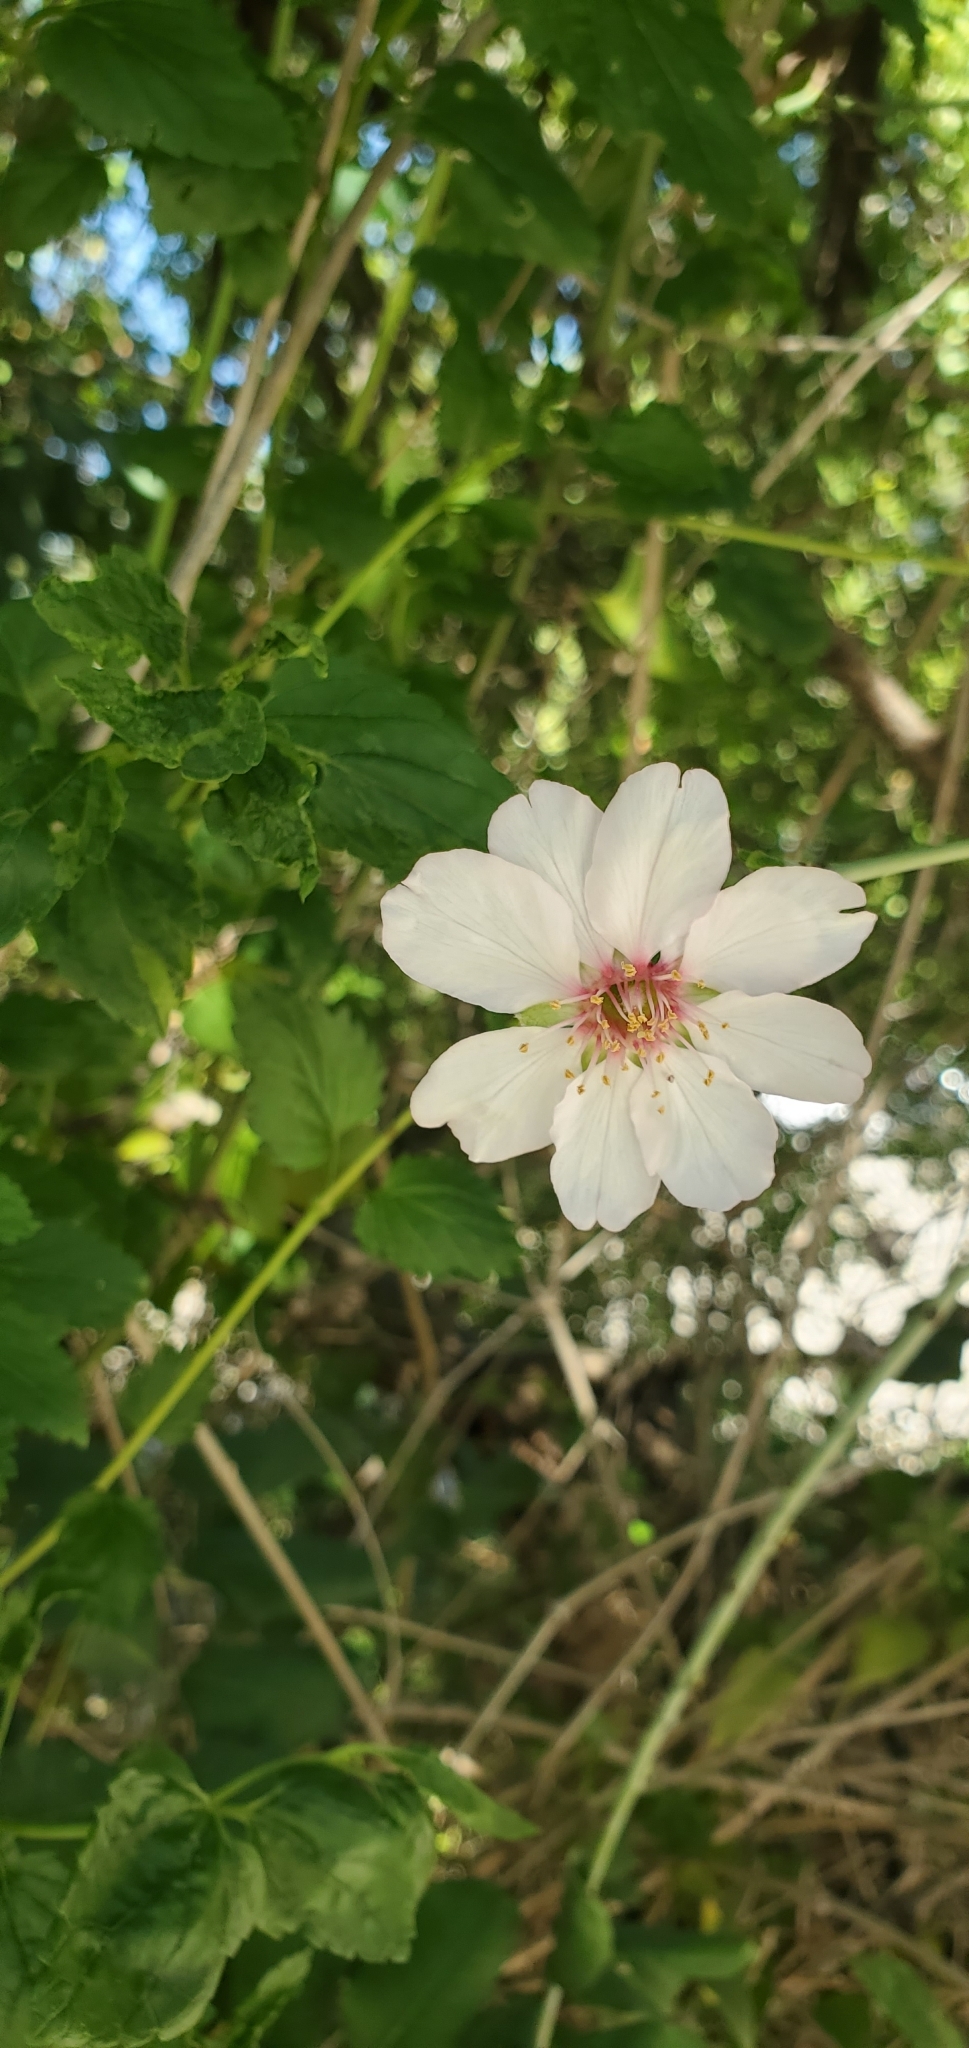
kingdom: Plantae
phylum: Tracheophyta
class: Magnoliopsida
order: Rosales
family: Rosaceae
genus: Prunus
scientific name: Prunus amygdalus
